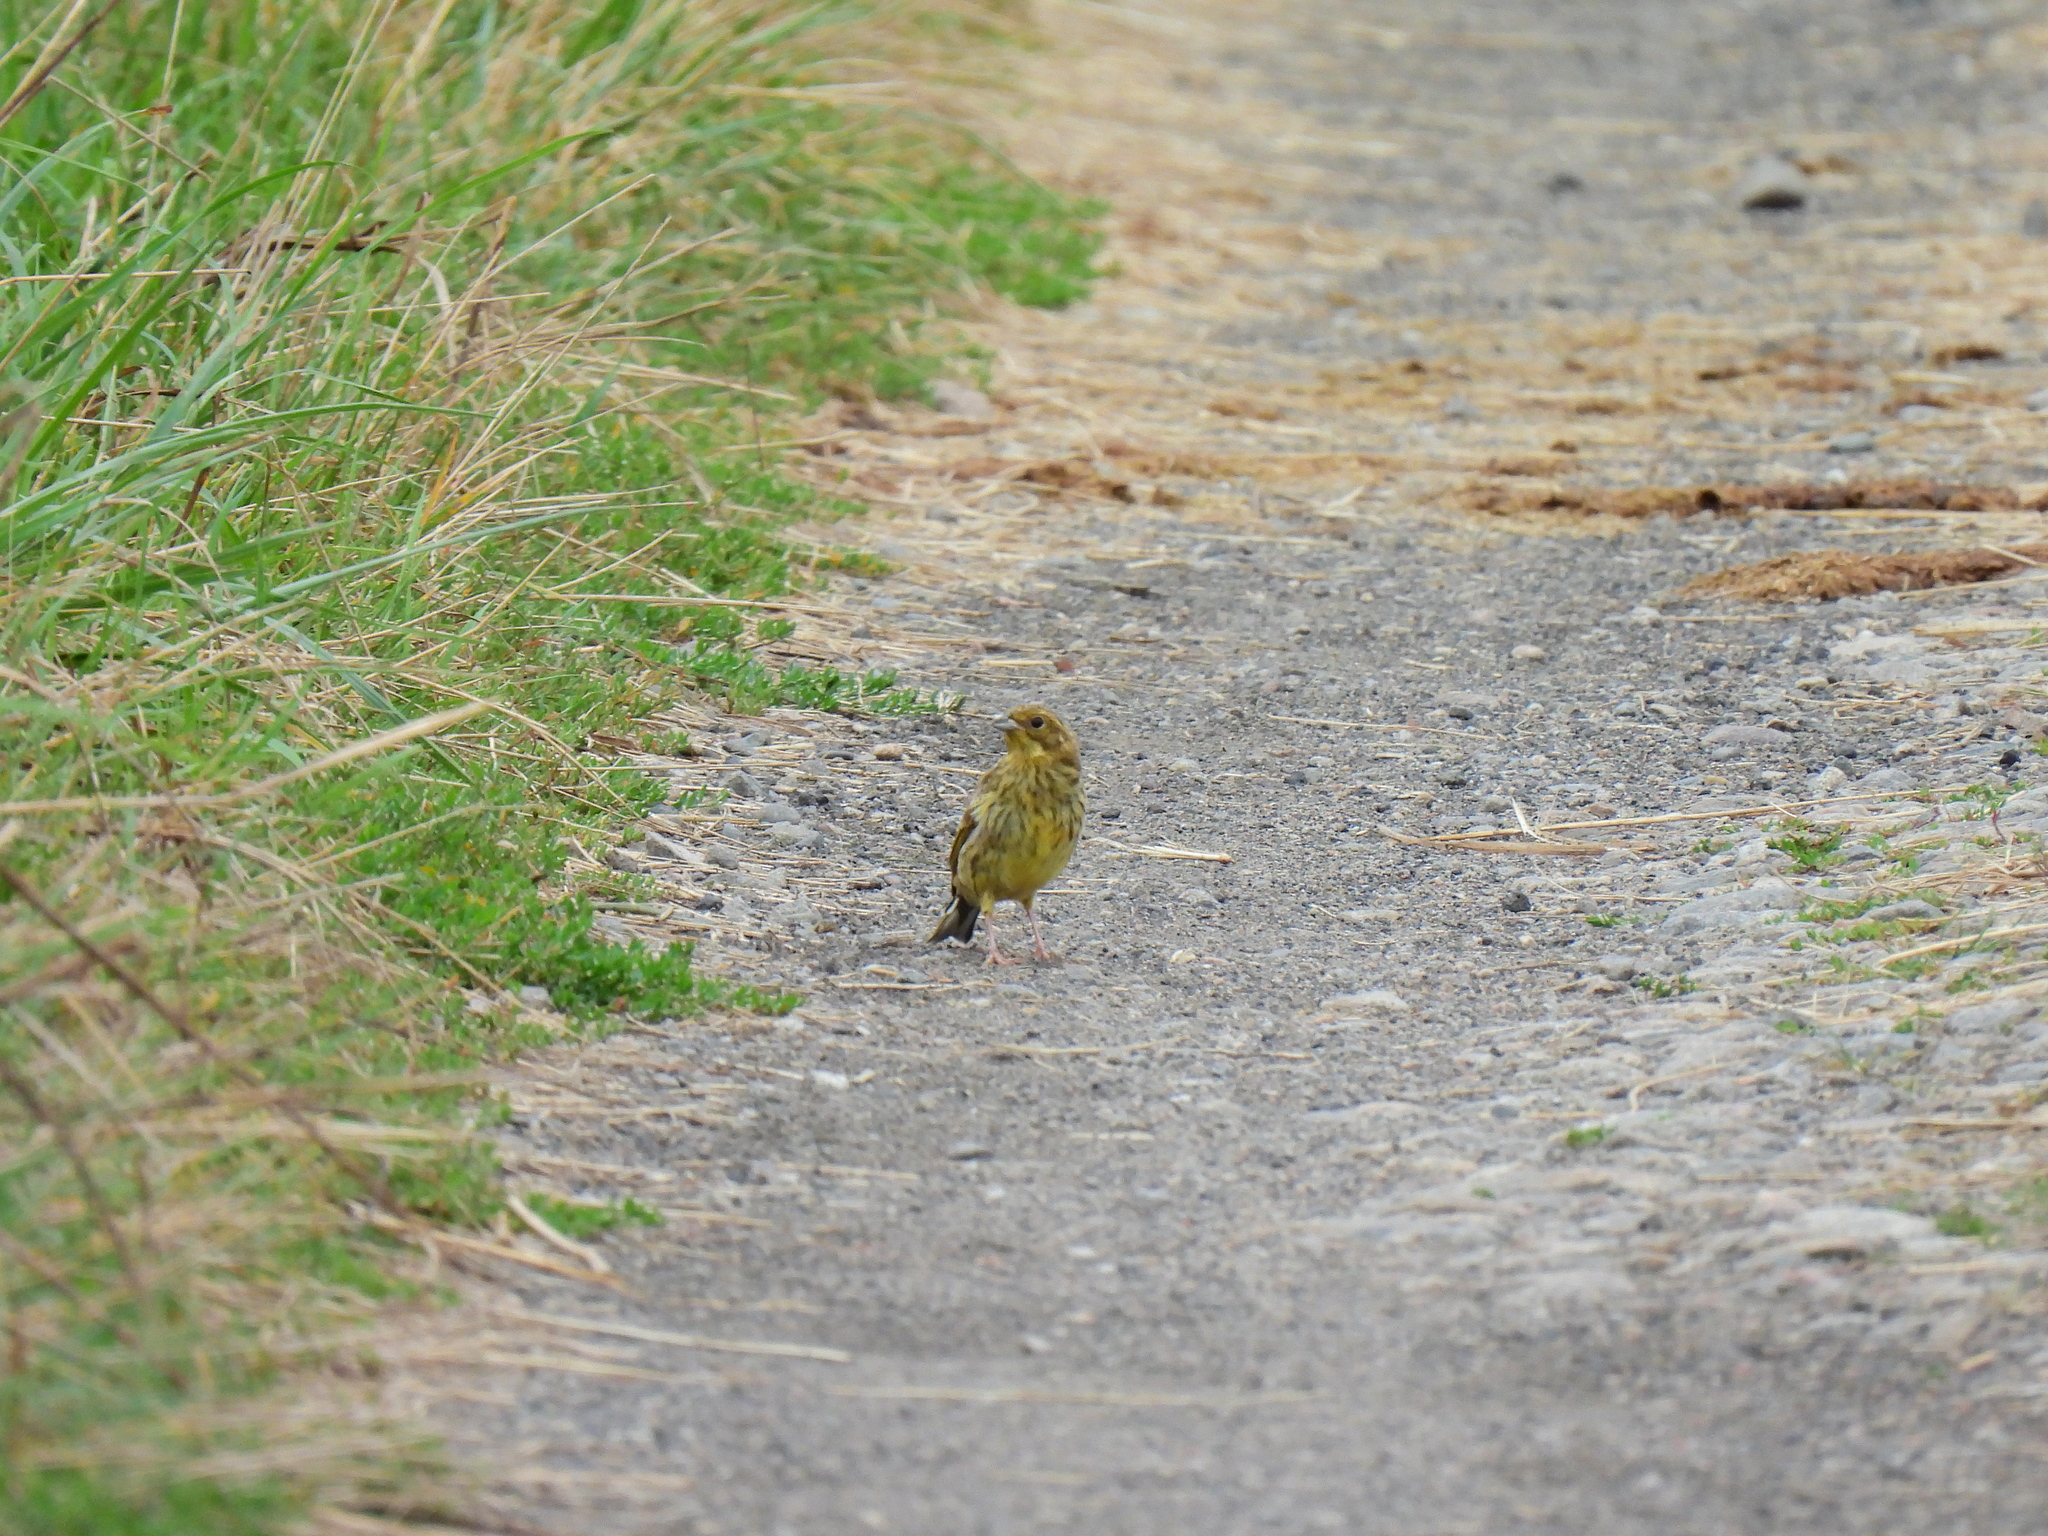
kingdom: Animalia
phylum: Chordata
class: Aves
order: Passeriformes
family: Emberizidae
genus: Emberiza
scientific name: Emberiza citrinella
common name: Yellowhammer
